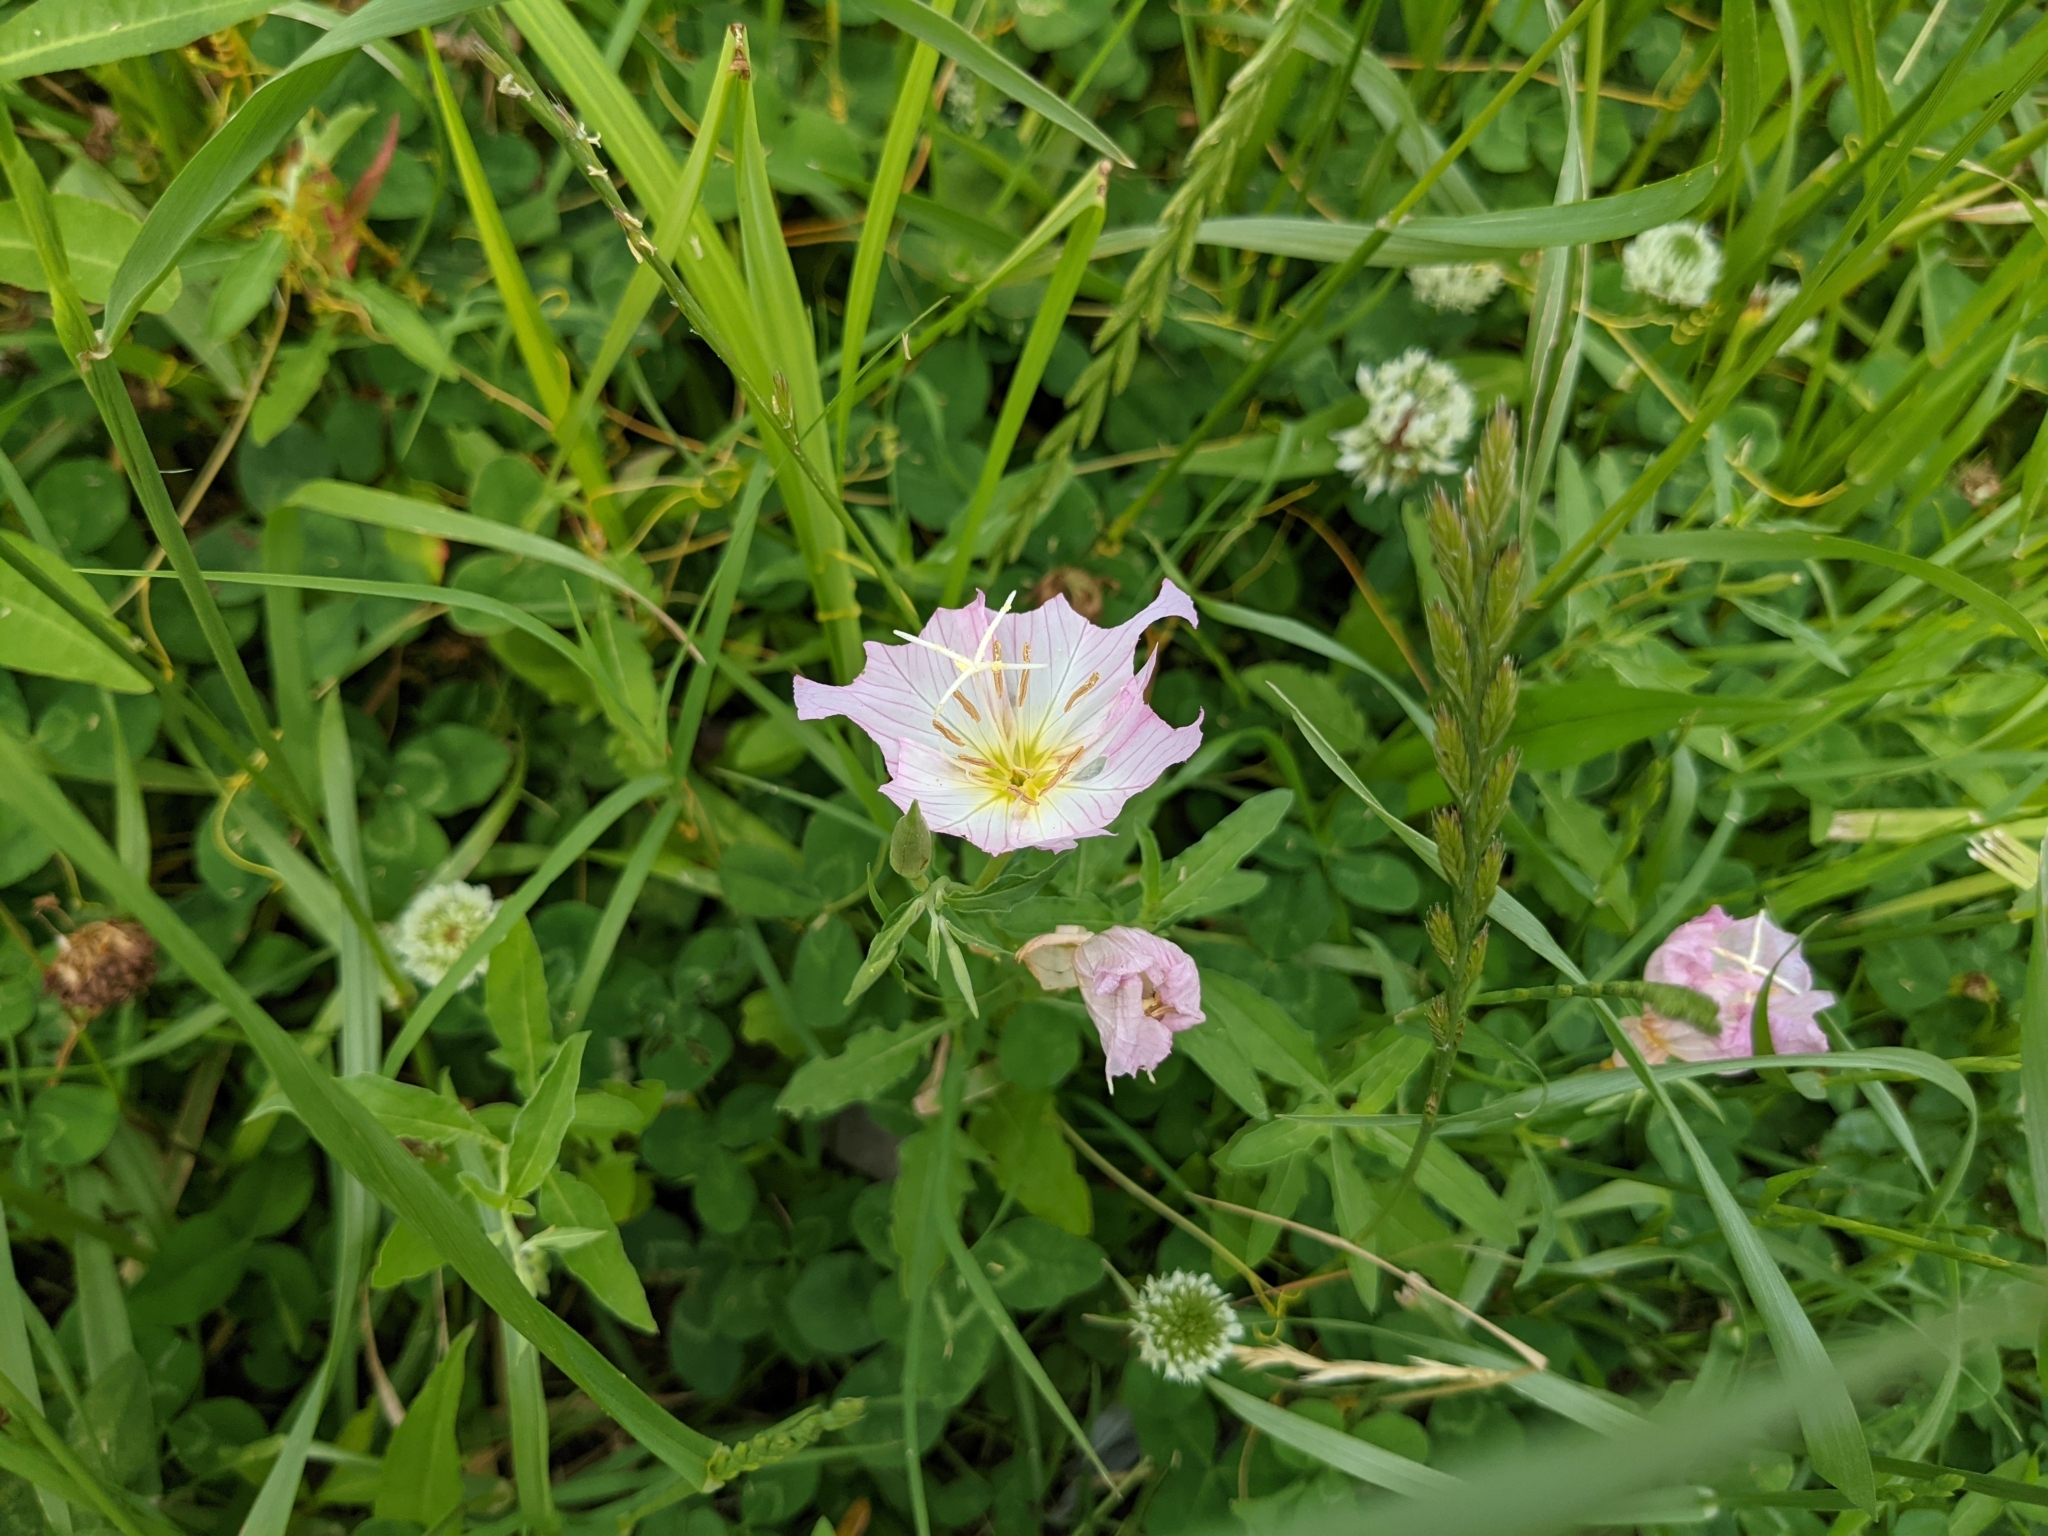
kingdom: Plantae
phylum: Tracheophyta
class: Magnoliopsida
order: Myrtales
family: Onagraceae
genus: Oenothera
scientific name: Oenothera speciosa
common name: White evening-primrose
